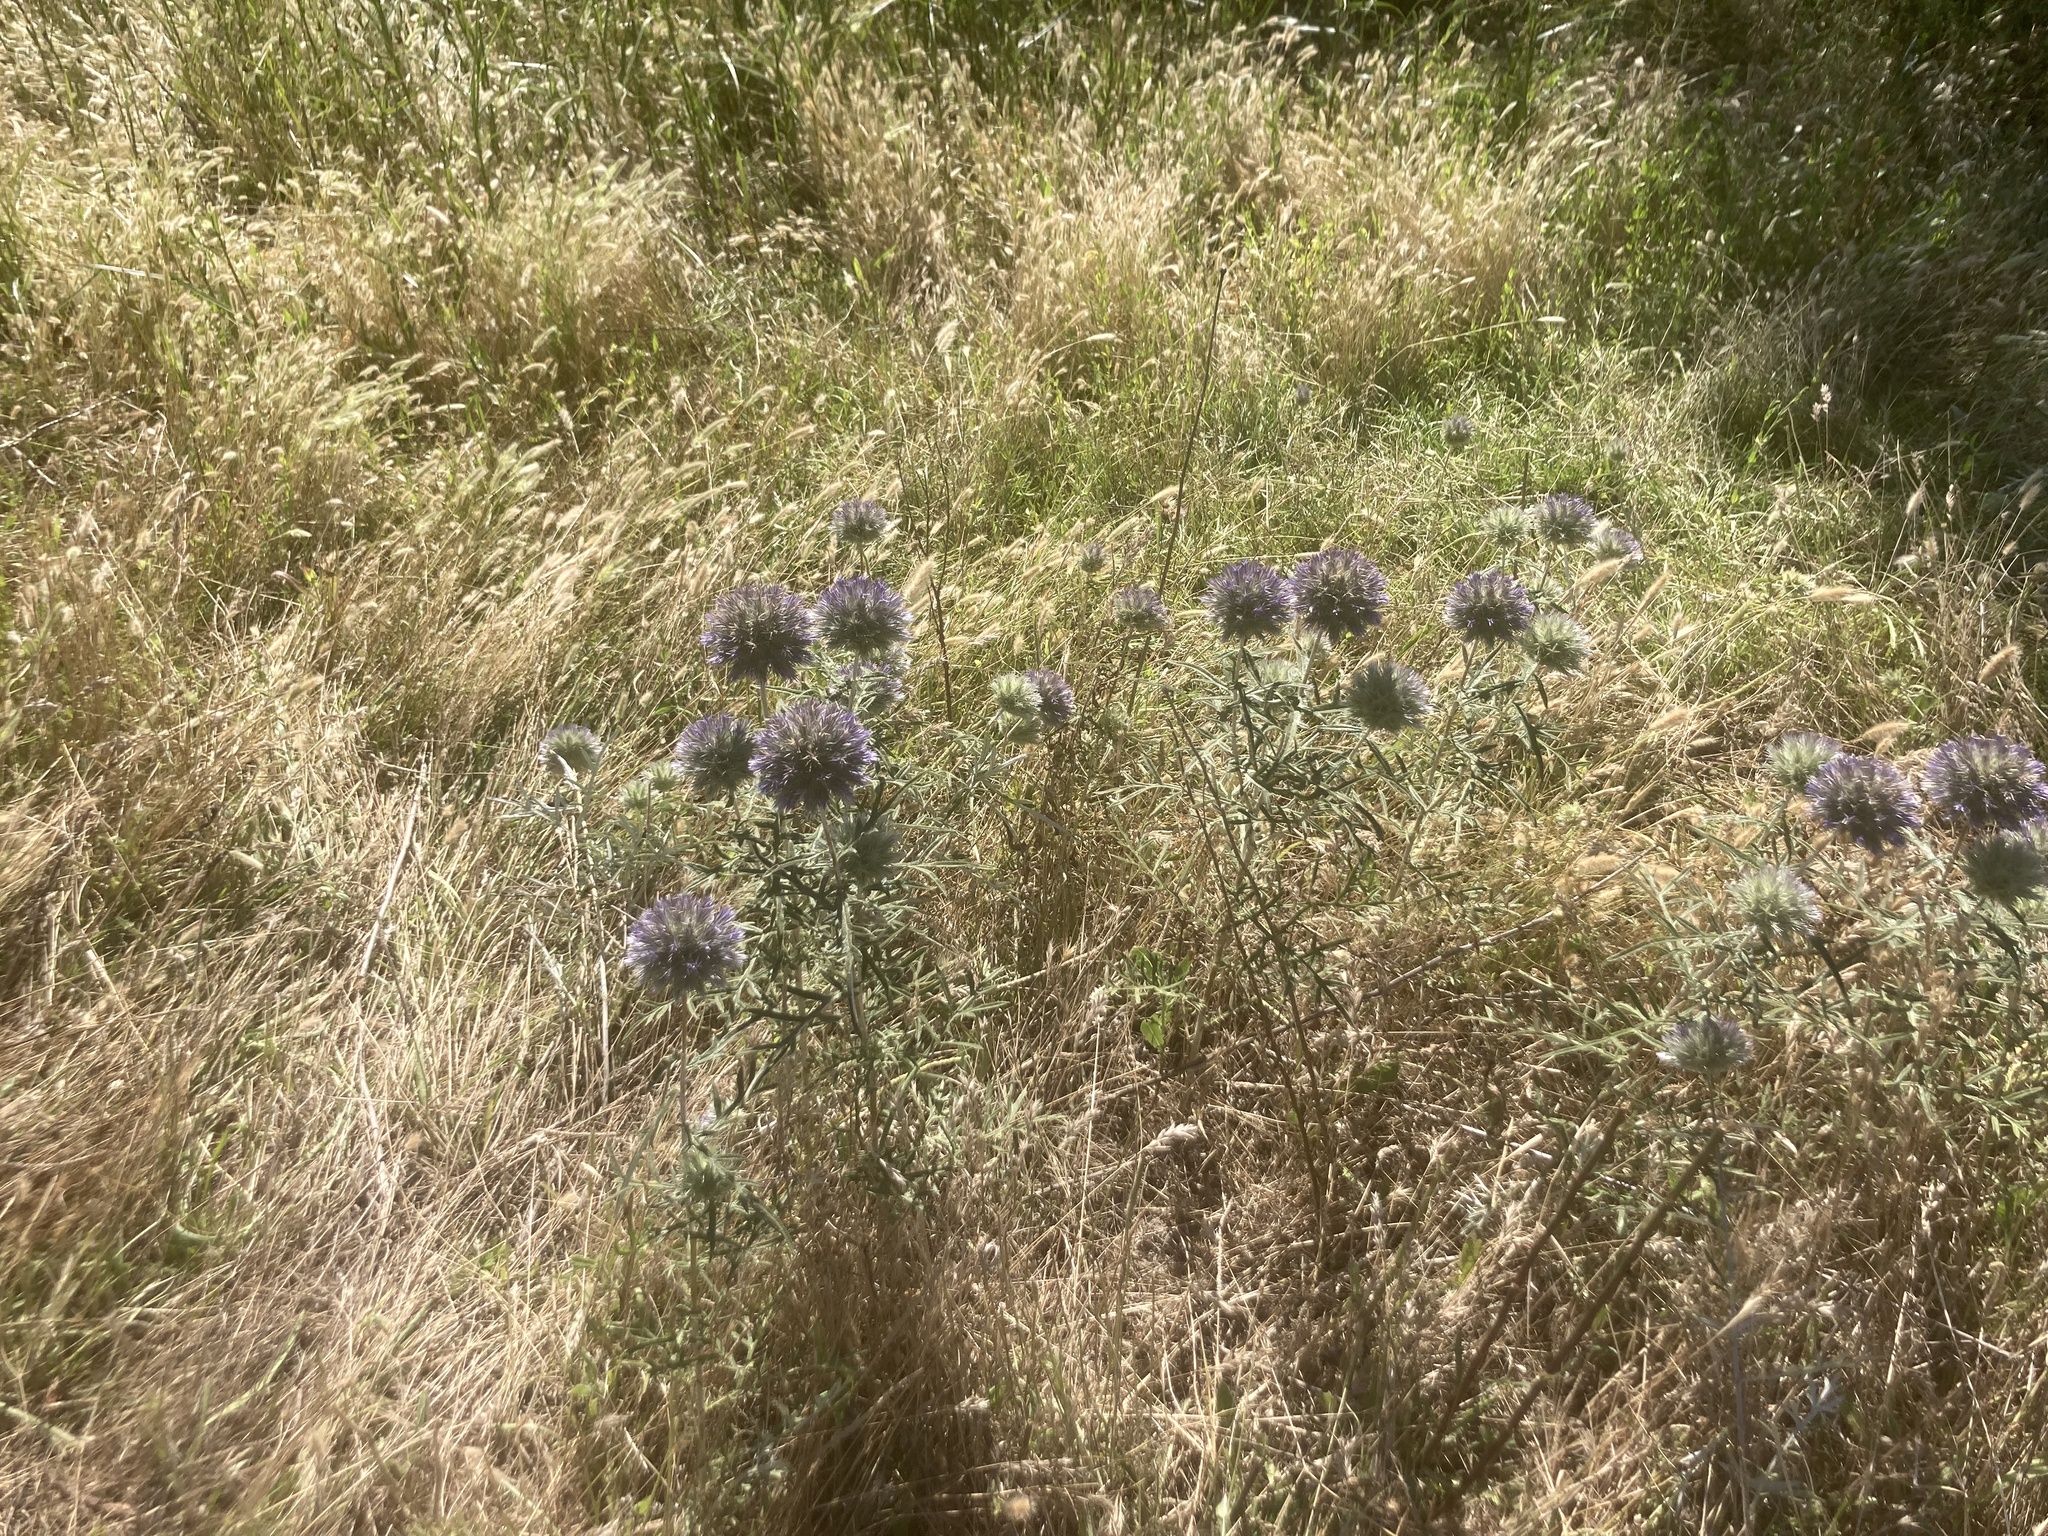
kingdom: Plantae
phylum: Tracheophyta
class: Magnoliopsida
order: Asterales
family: Asteraceae
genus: Echinops
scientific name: Echinops strigosus
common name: Rough-leaf globe thistle
